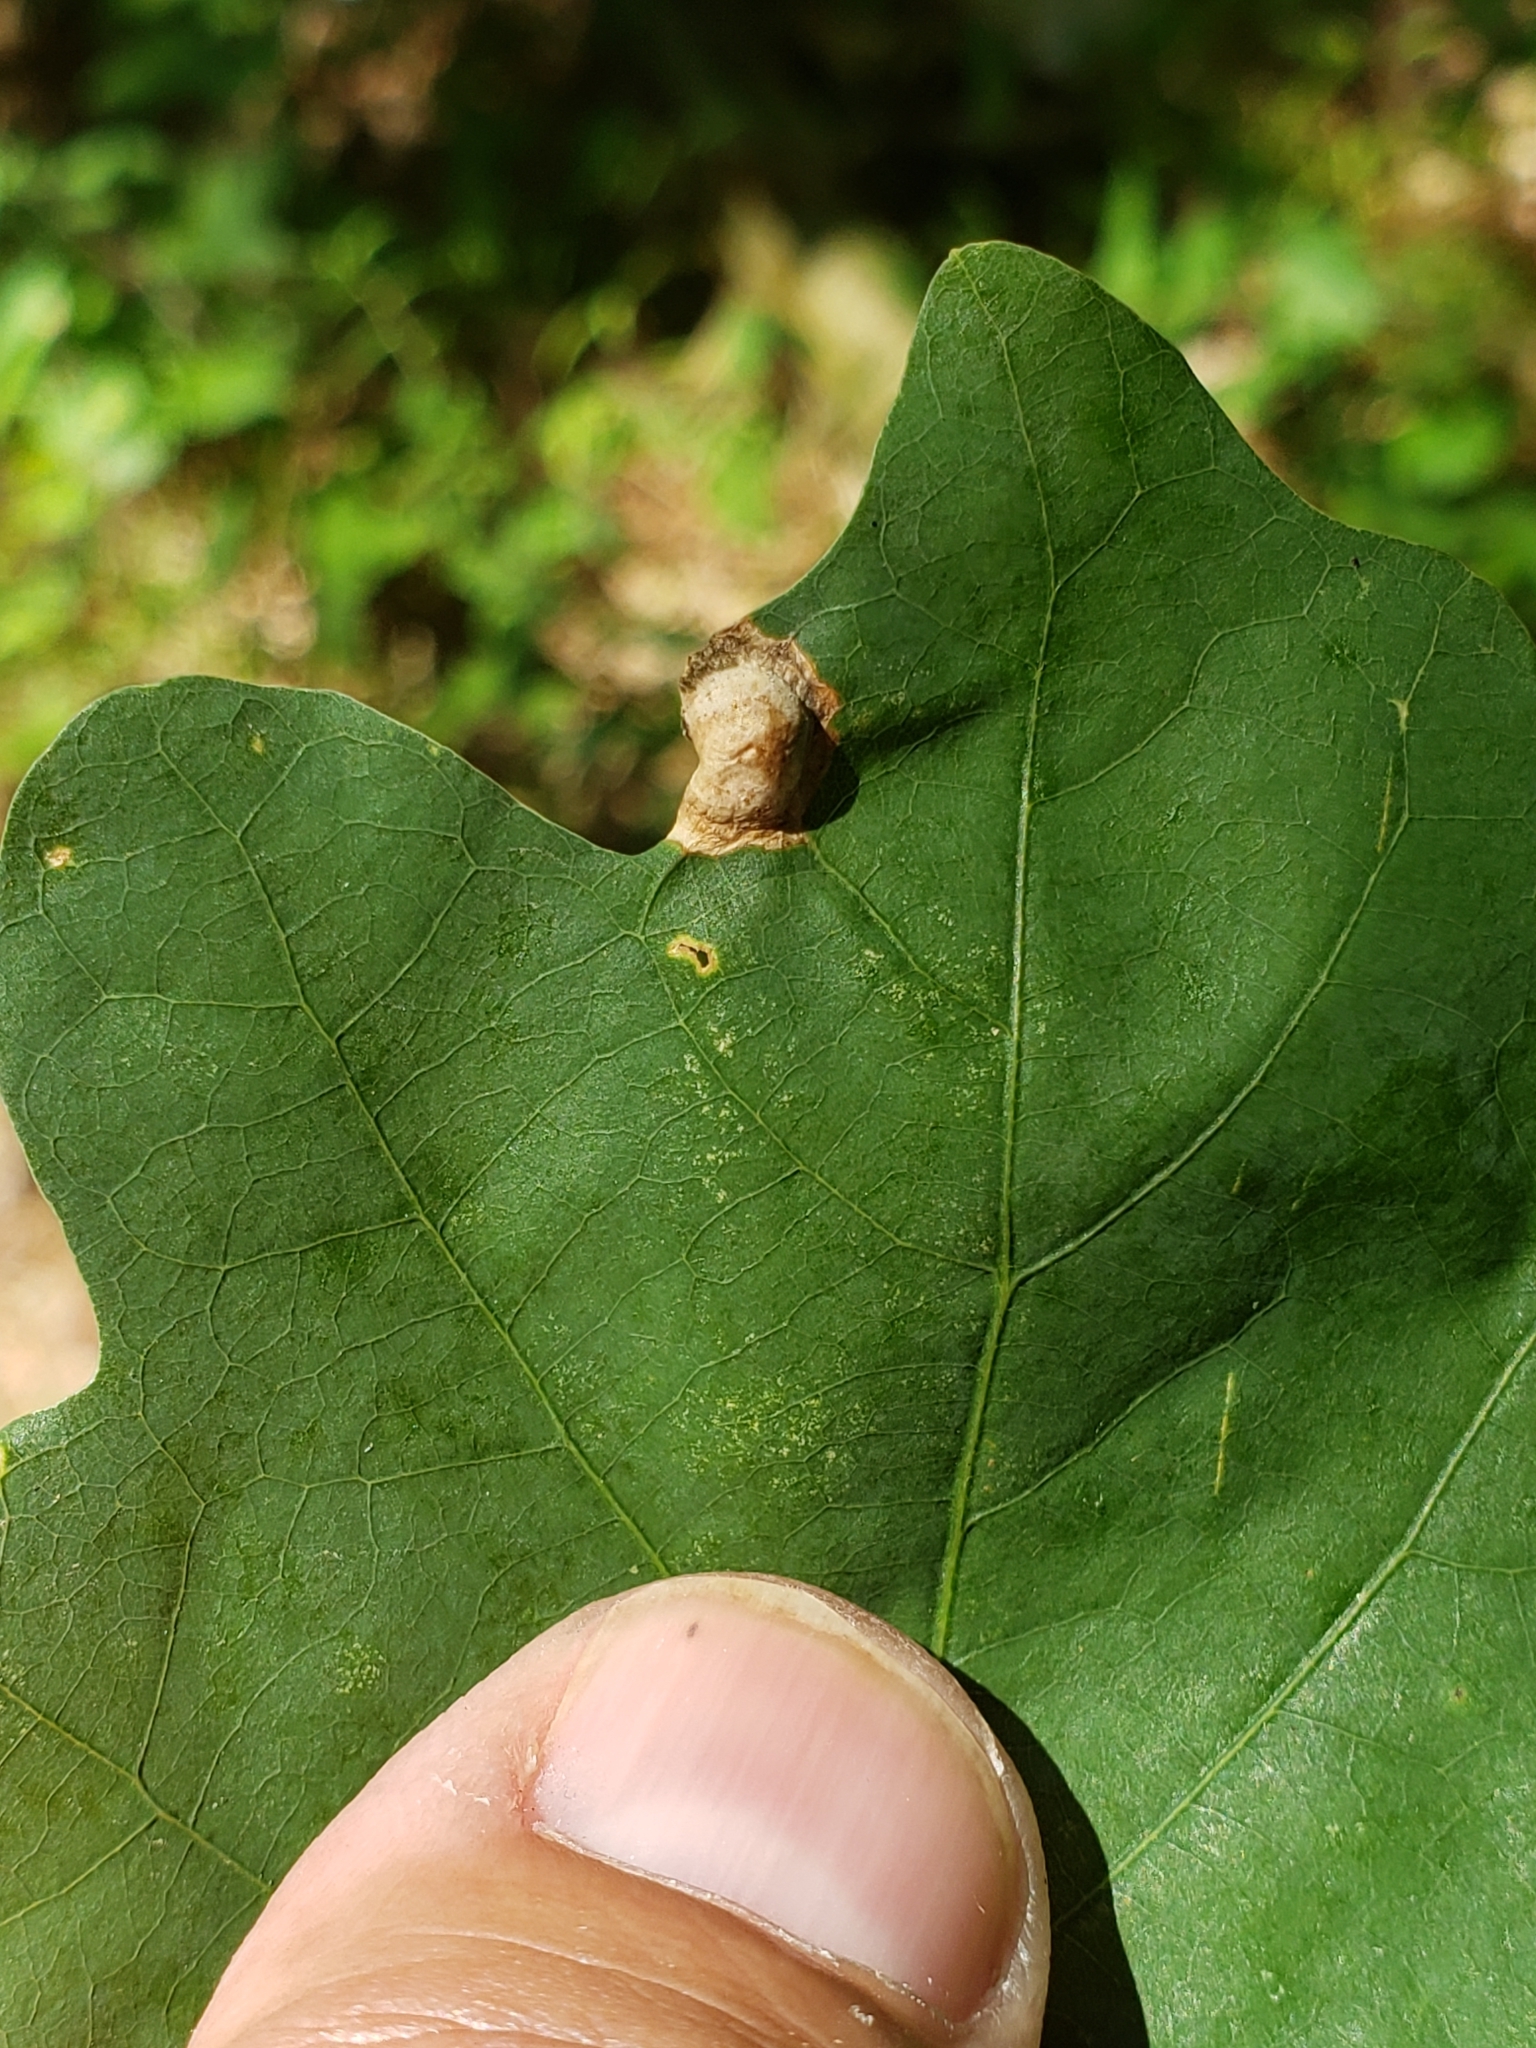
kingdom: Animalia
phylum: Arthropoda
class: Insecta
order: Hymenoptera
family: Cynipidae
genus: Callirhytis
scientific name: Callirhytis
